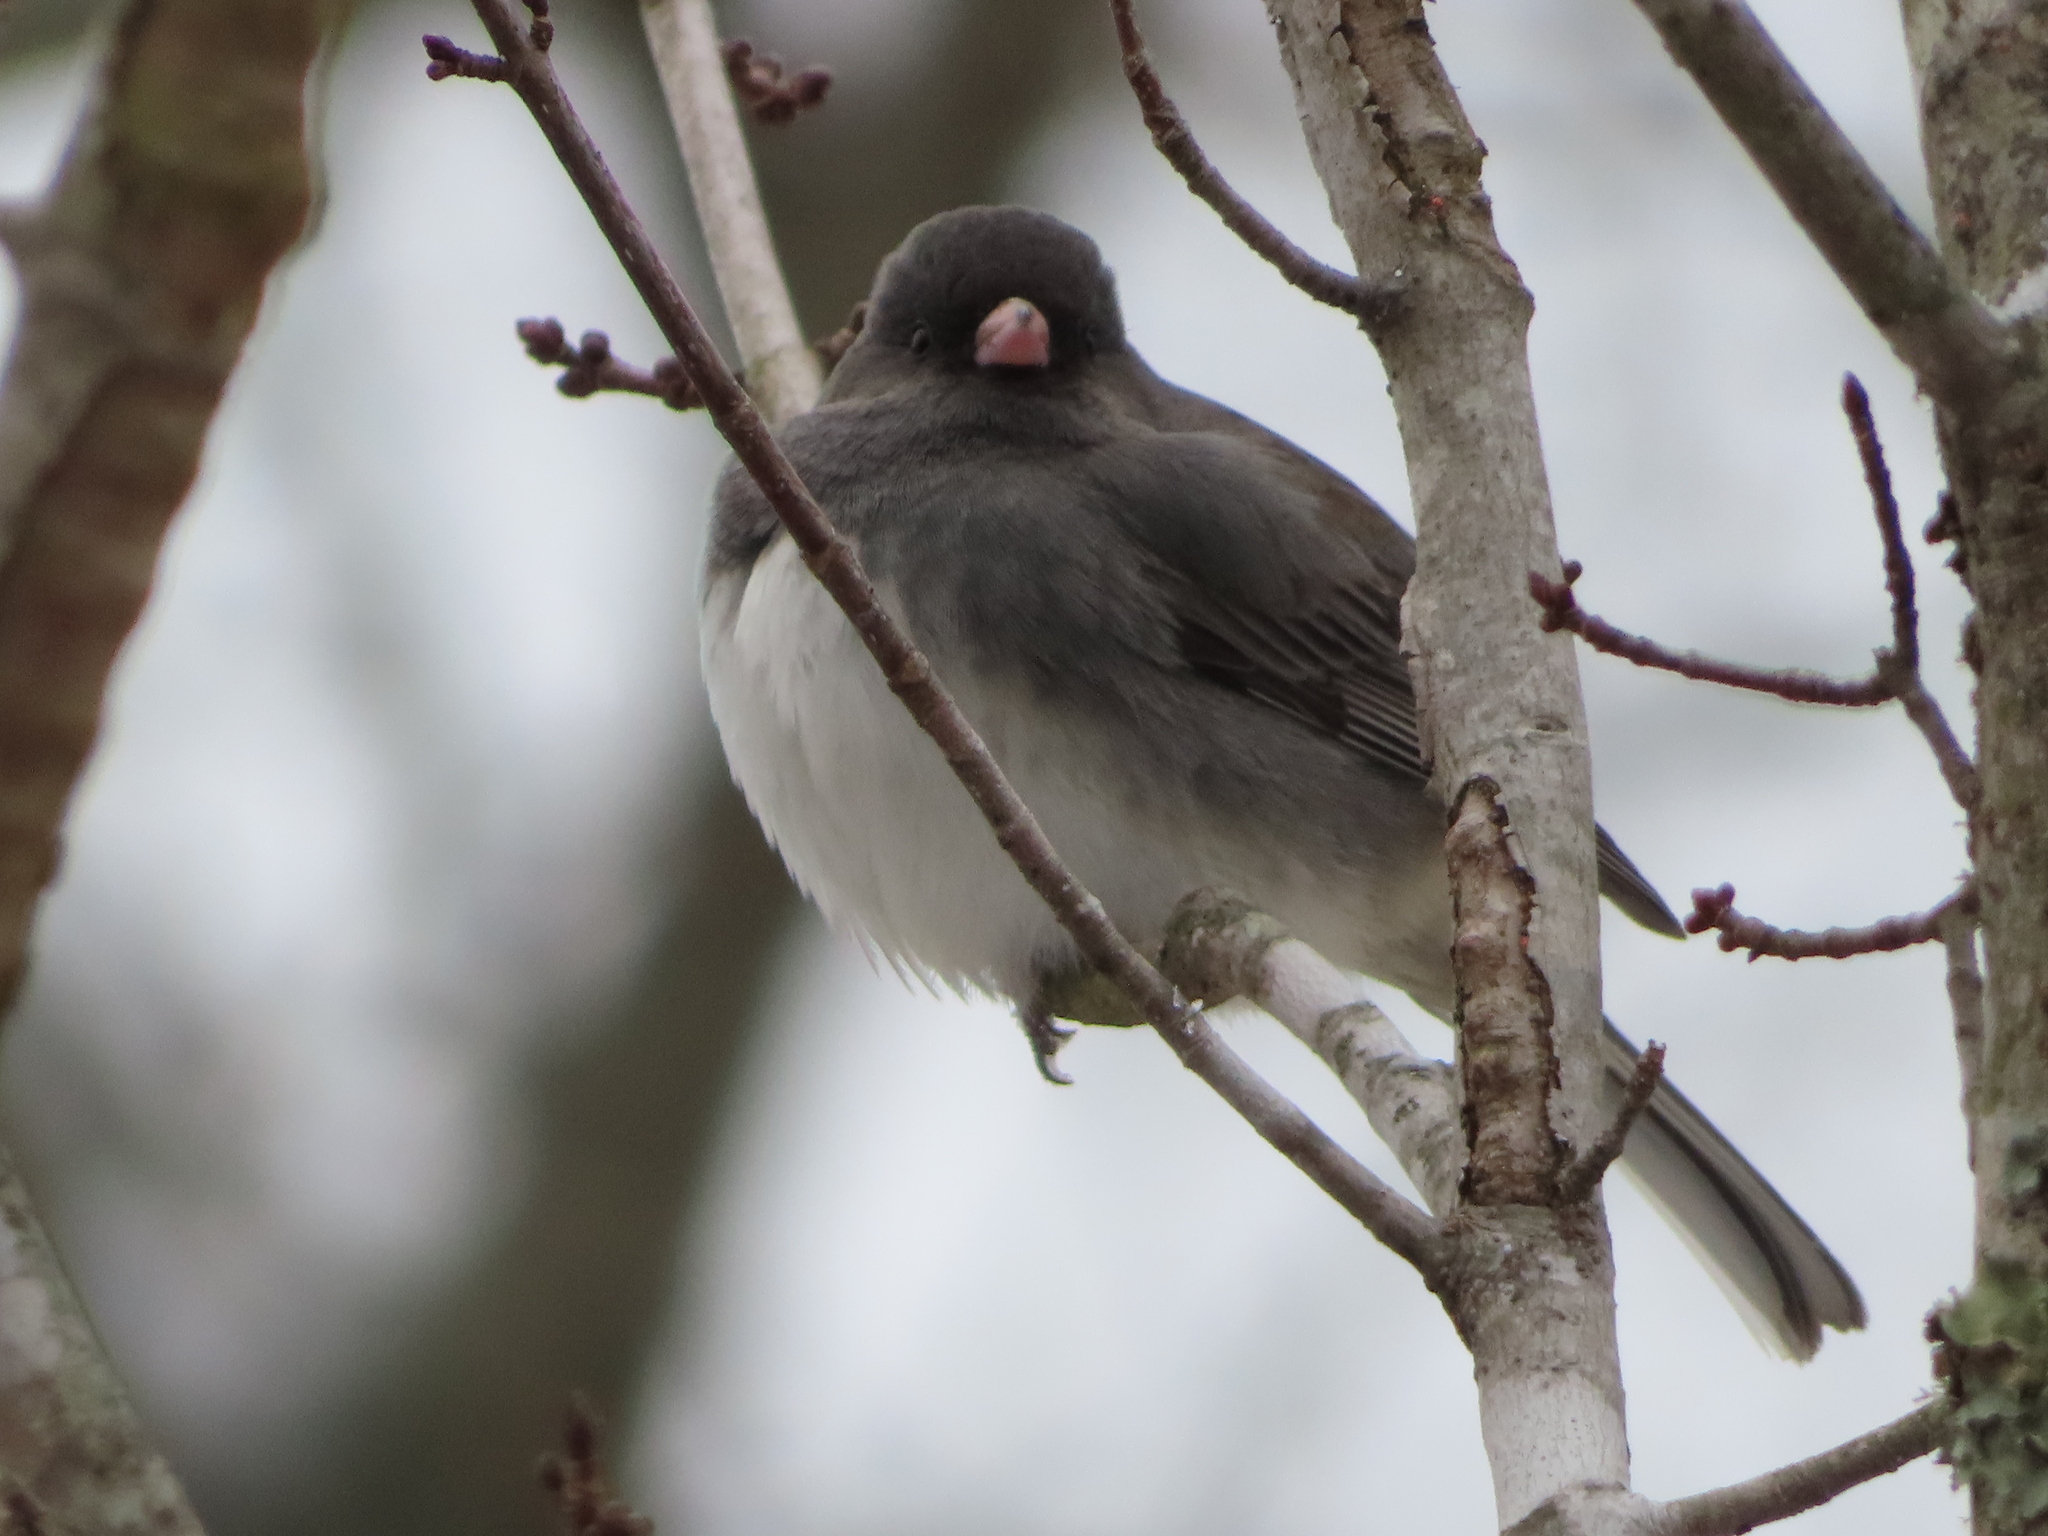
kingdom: Animalia
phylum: Chordata
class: Aves
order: Passeriformes
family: Passerellidae
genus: Junco
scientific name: Junco hyemalis
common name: Dark-eyed junco
